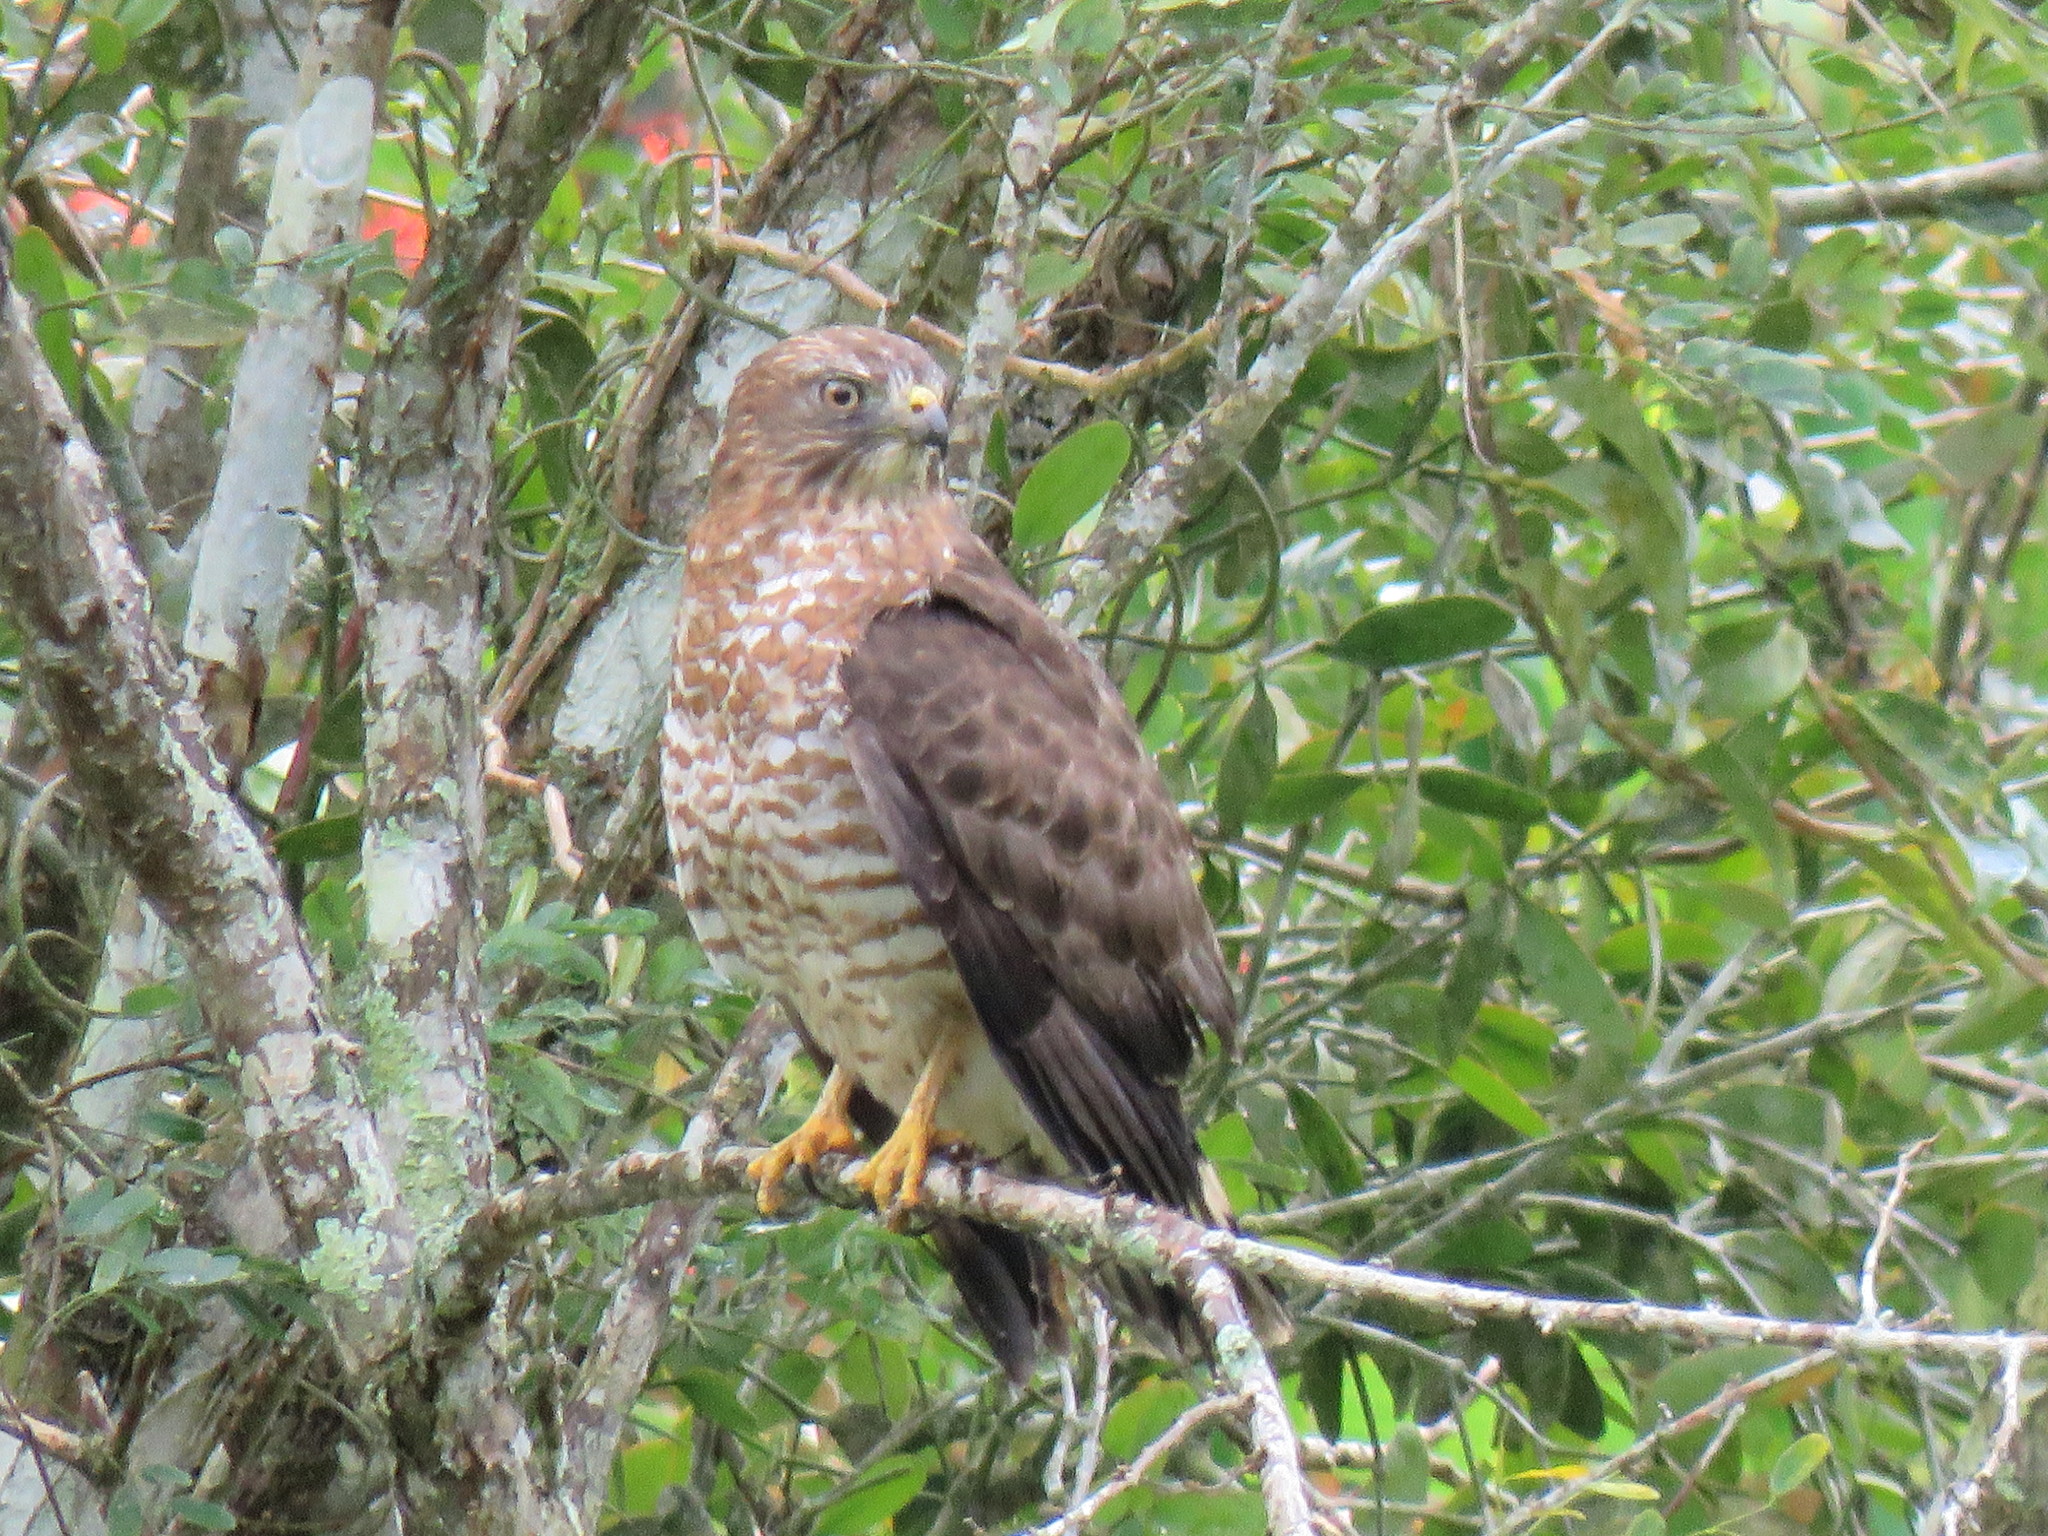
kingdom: Animalia
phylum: Chordata
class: Aves
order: Accipitriformes
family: Accipitridae
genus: Buteo
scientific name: Buteo platypterus
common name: Broad-winged hawk
